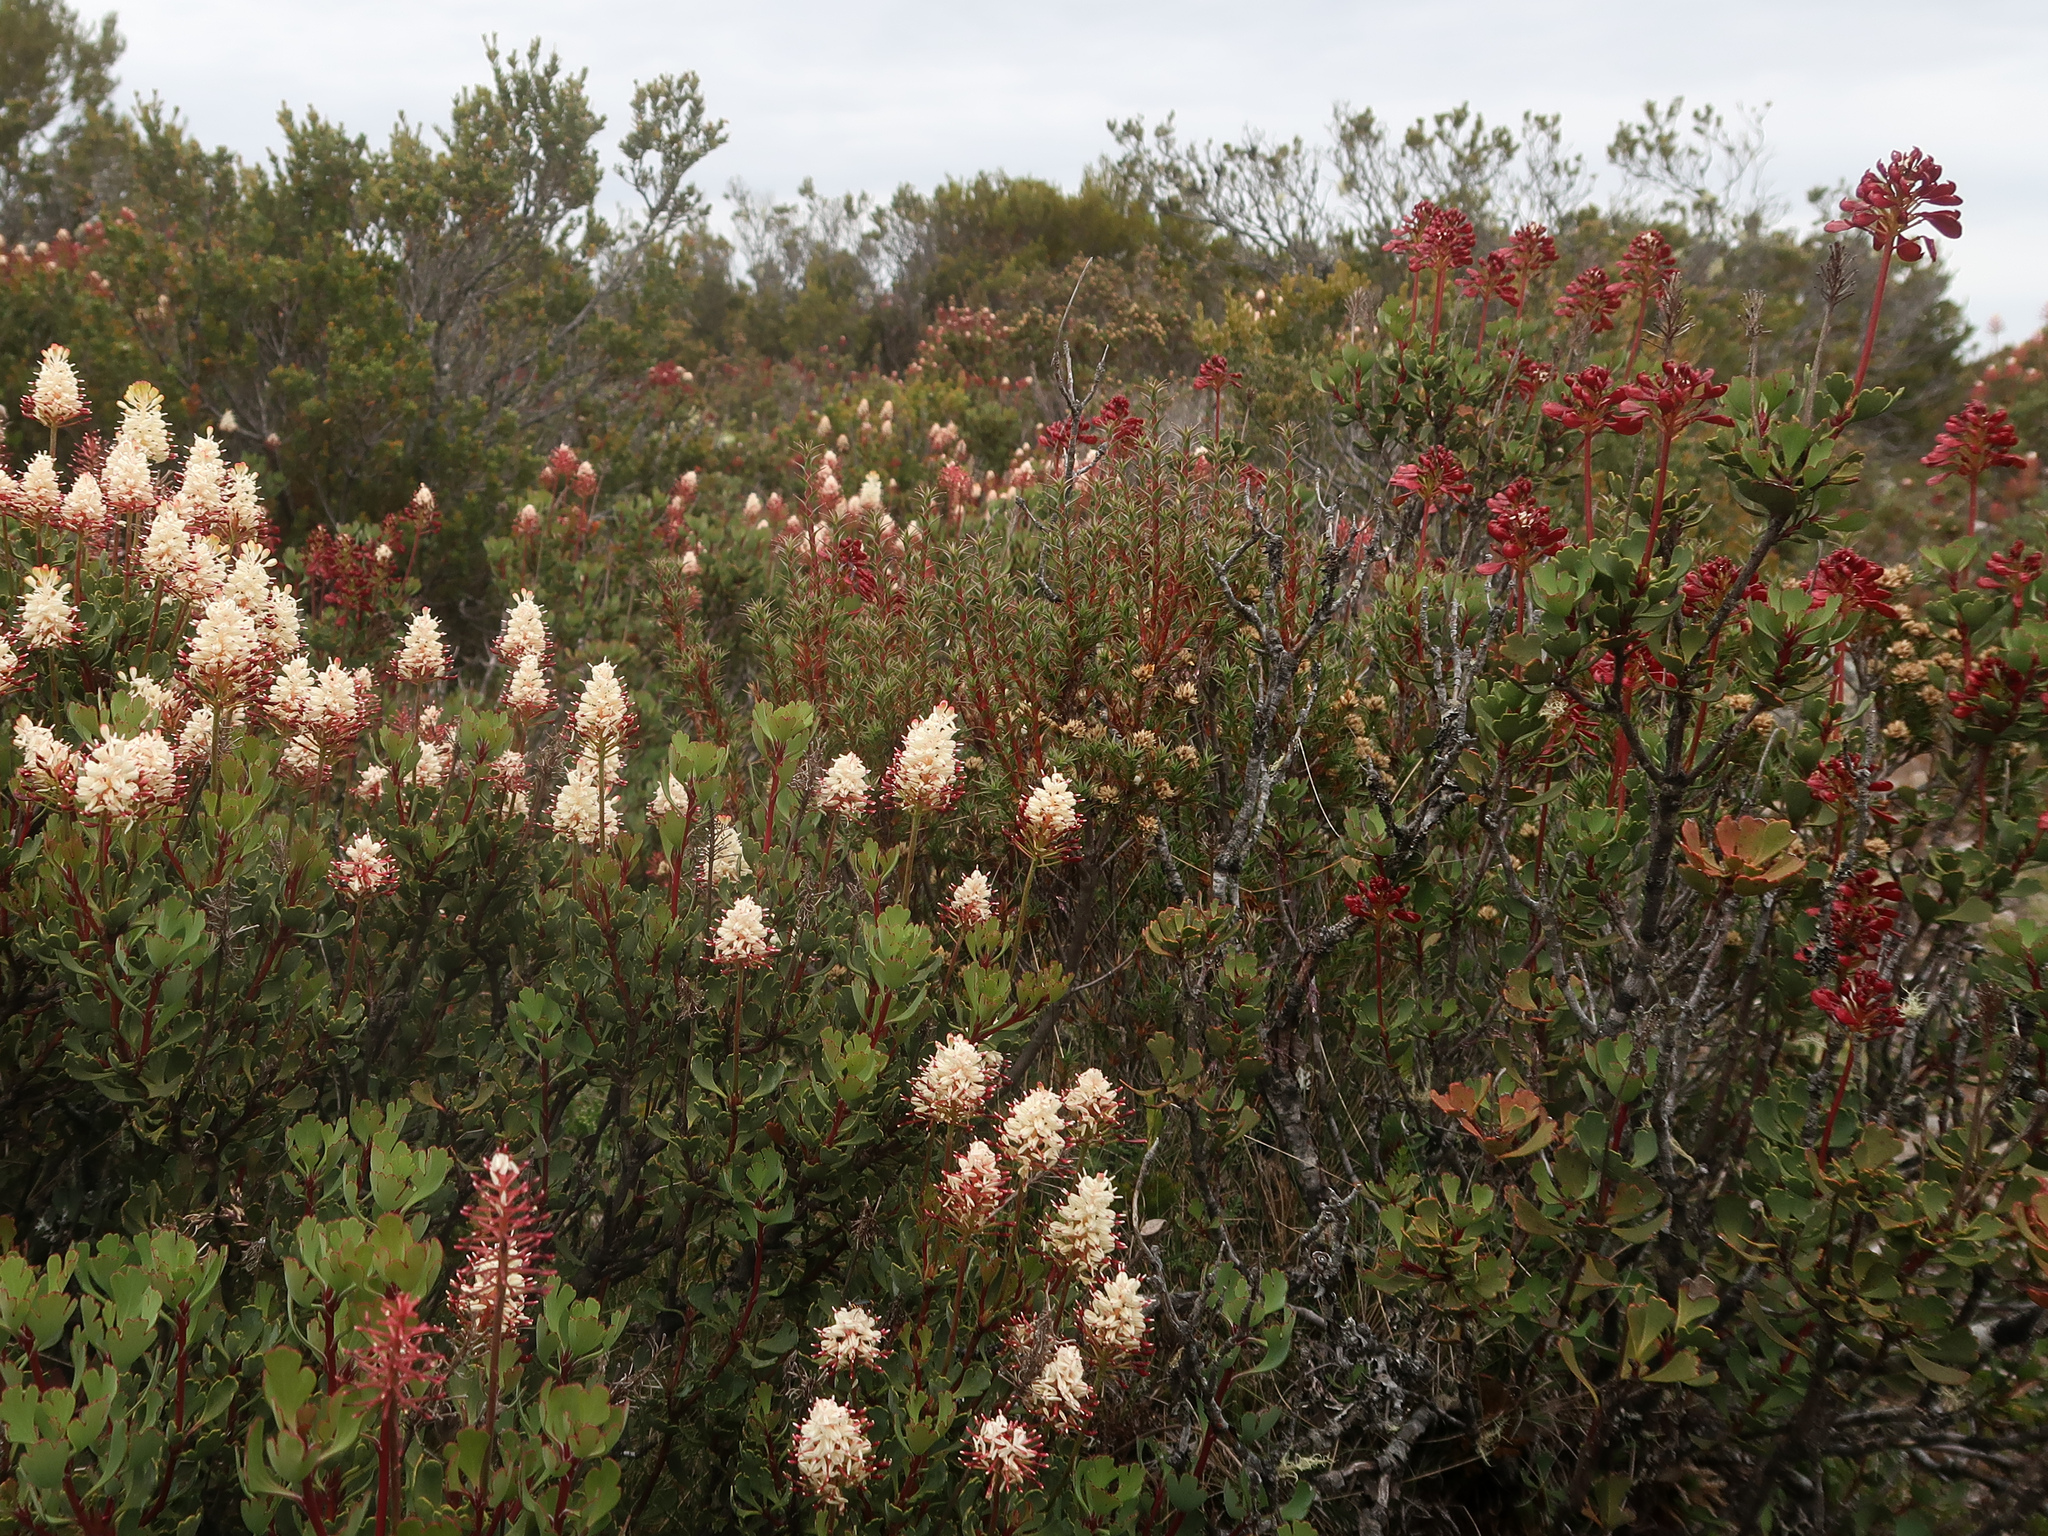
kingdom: Plantae
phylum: Tracheophyta
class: Magnoliopsida
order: Proteales
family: Proteaceae
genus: Bellendena
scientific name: Bellendena montana
